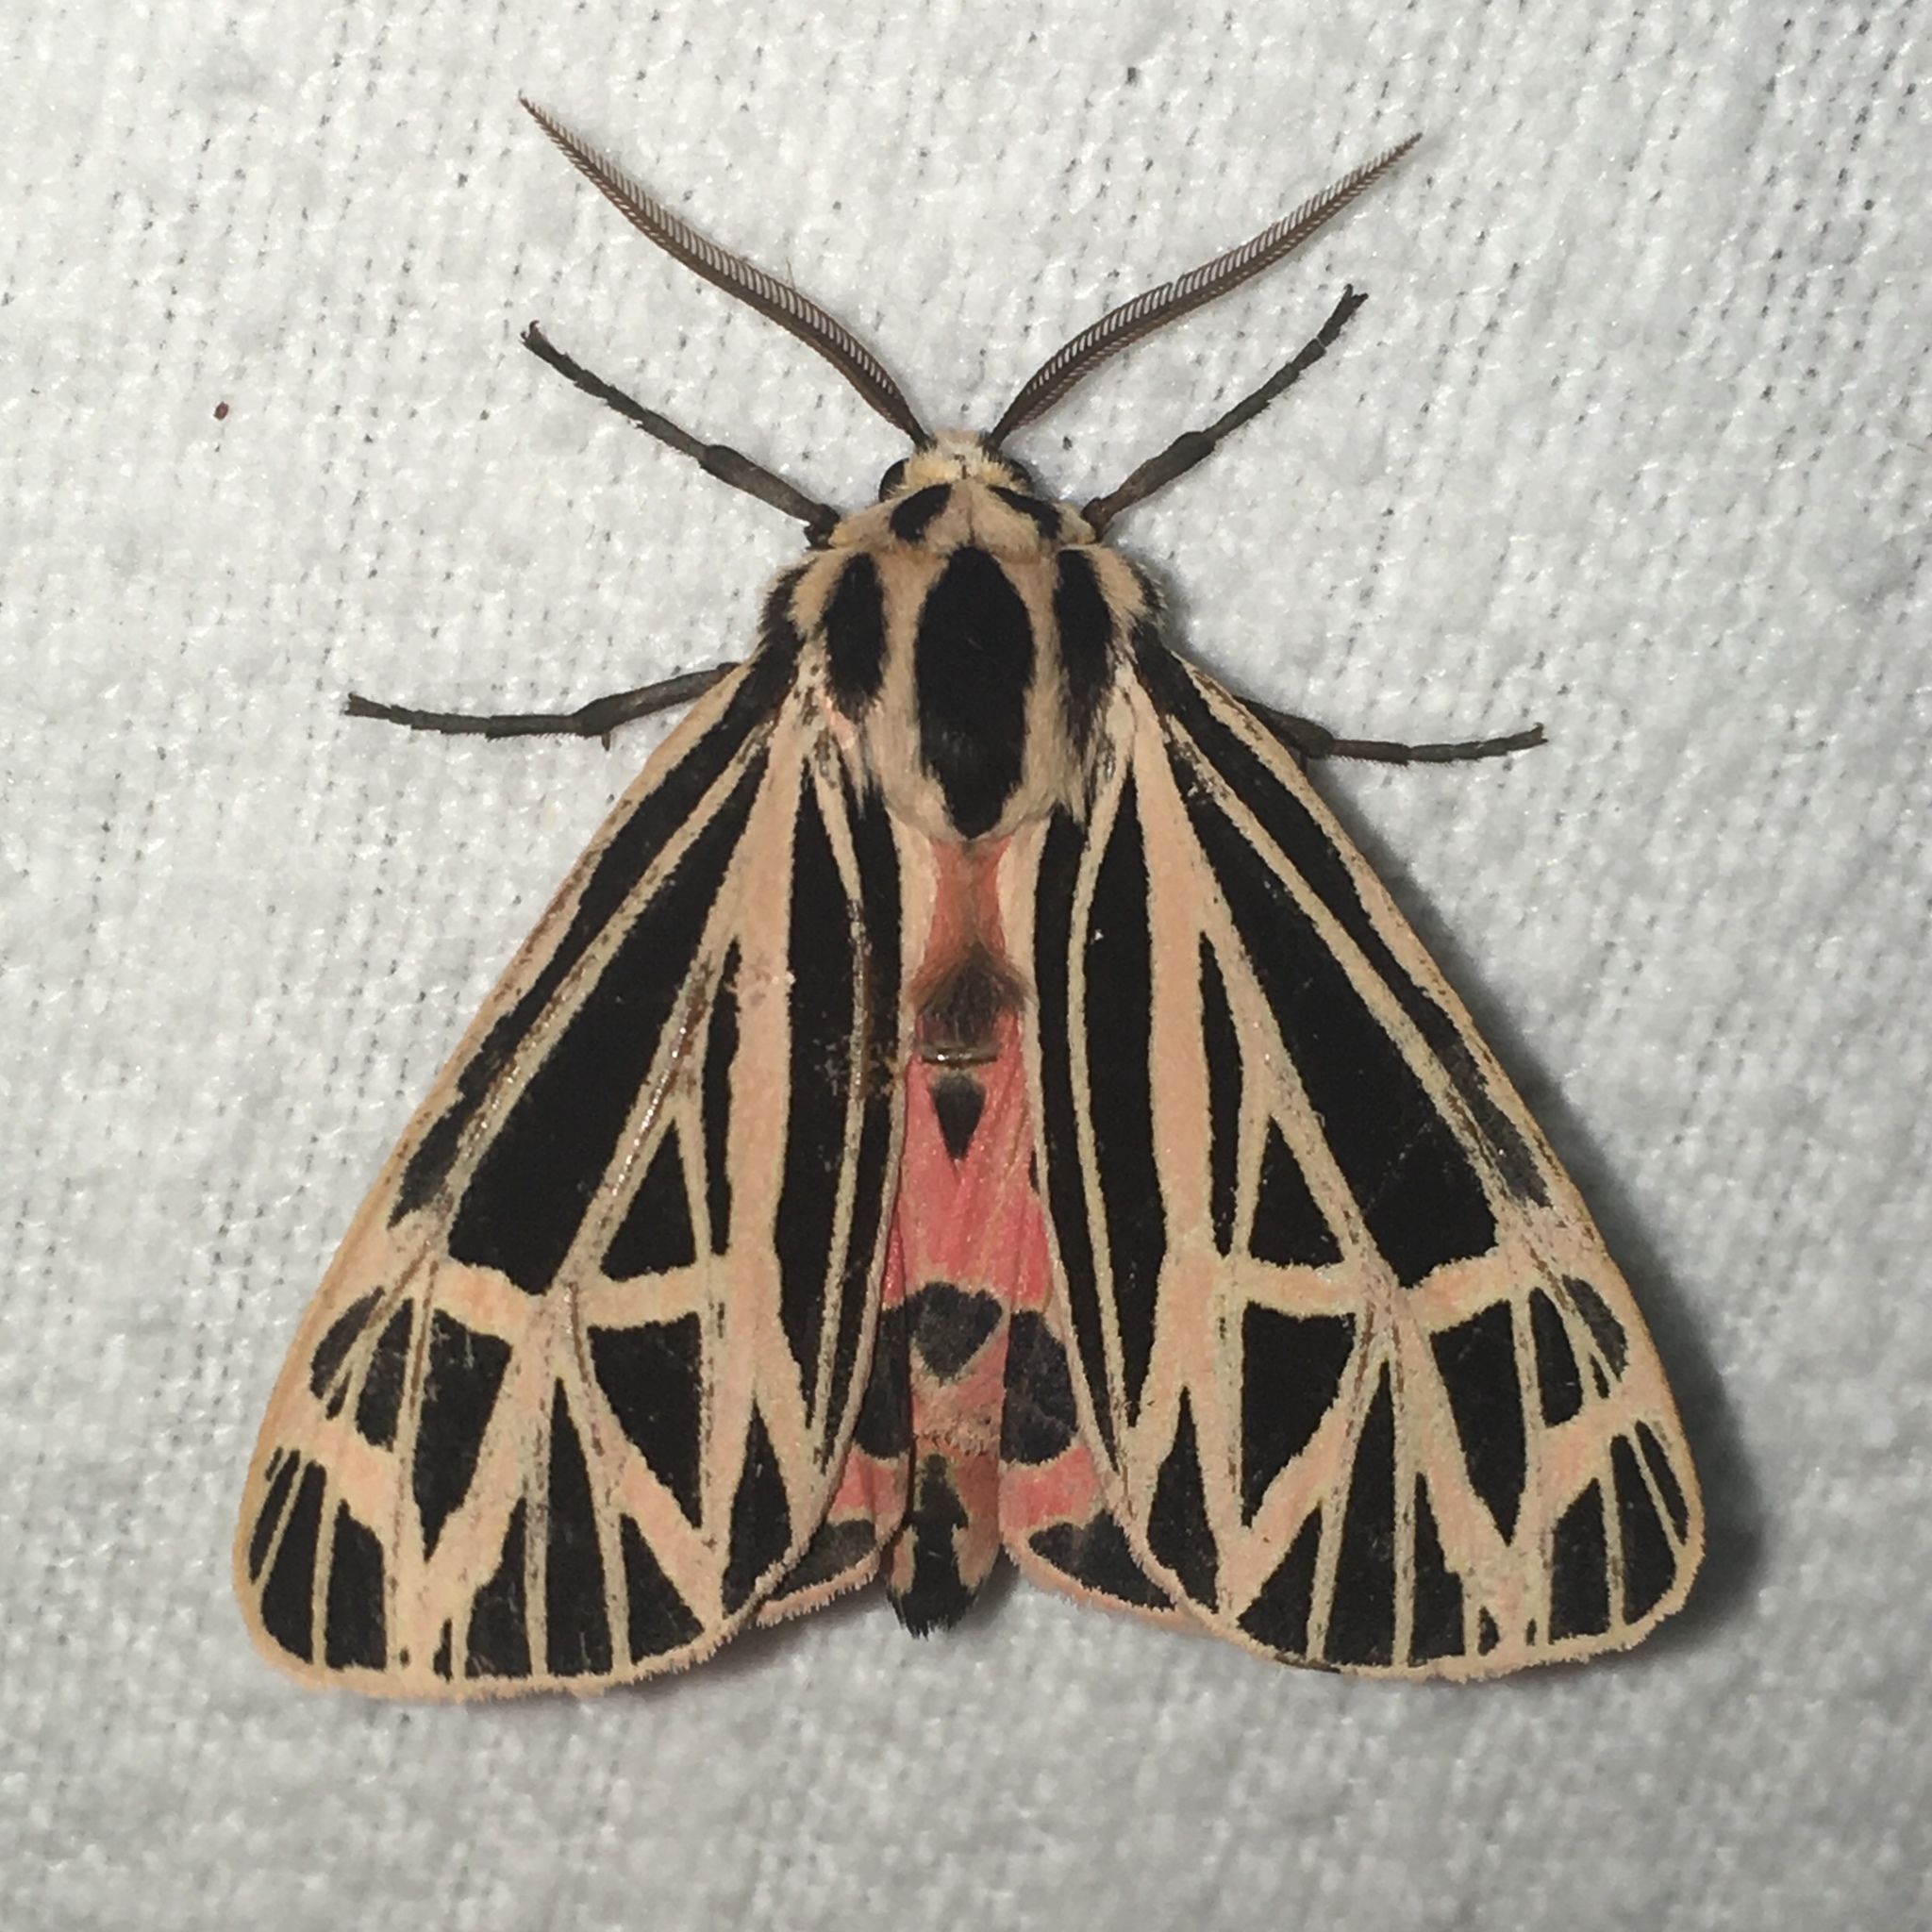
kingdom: Animalia
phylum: Arthropoda
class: Insecta
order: Lepidoptera
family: Erebidae
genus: Grammia
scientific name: Grammia virgo
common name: Virgin tiger moth
